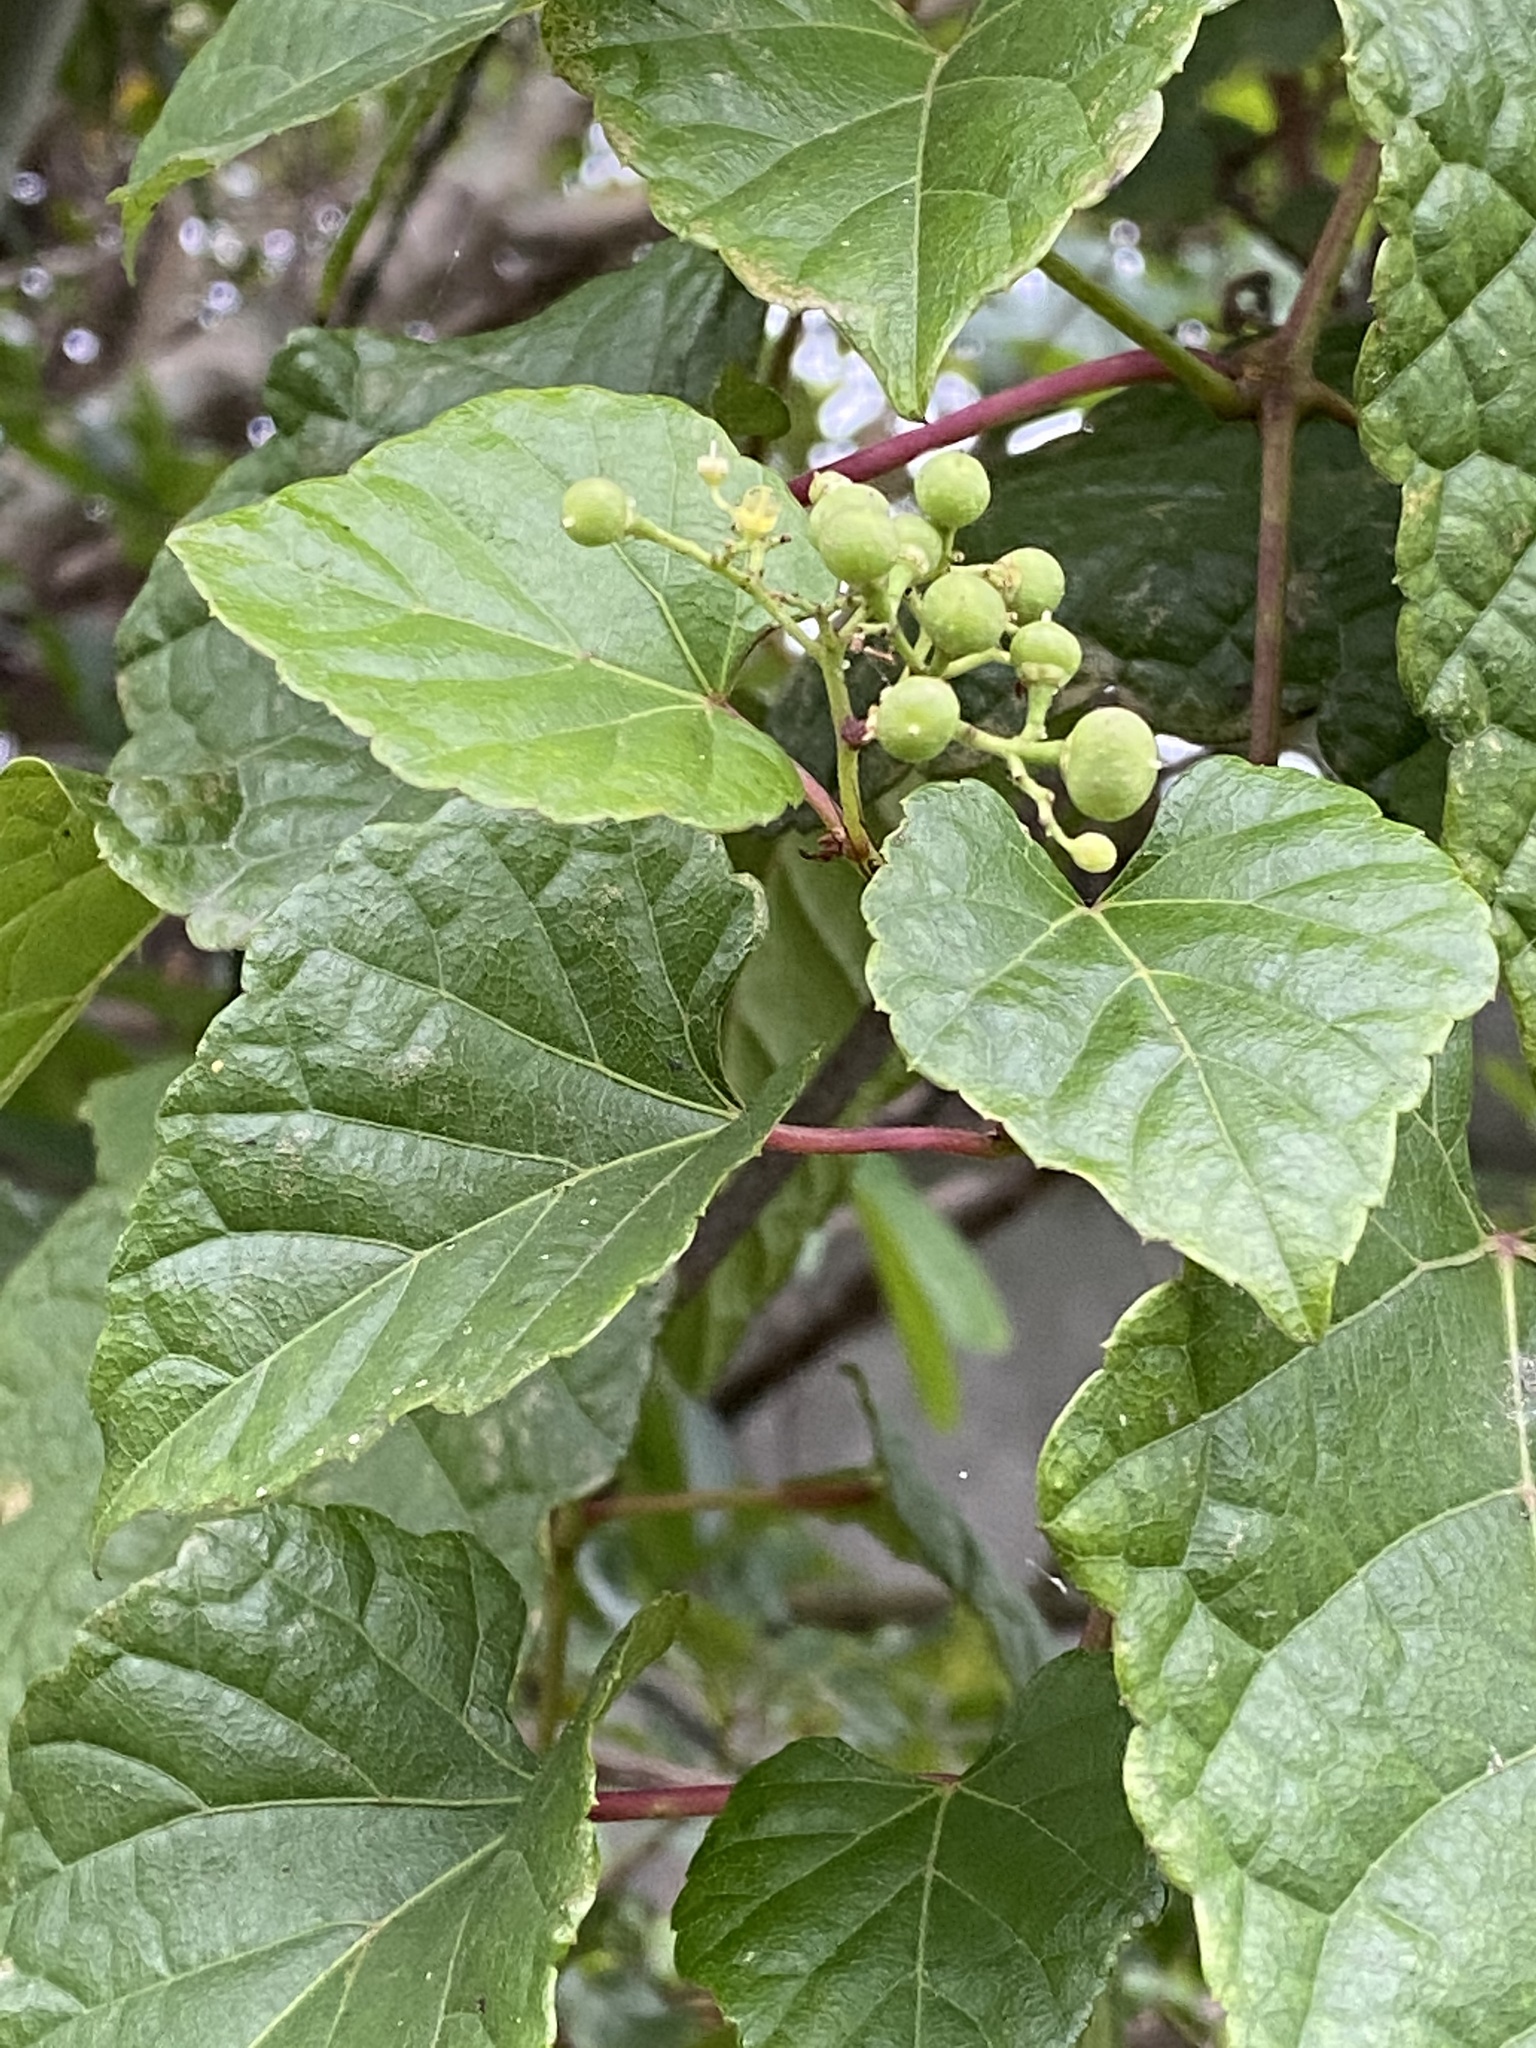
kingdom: Plantae
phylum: Tracheophyta
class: Magnoliopsida
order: Vitales
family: Vitaceae
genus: Ampelopsis
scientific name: Ampelopsis glandulosa
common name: Amur peppervine
